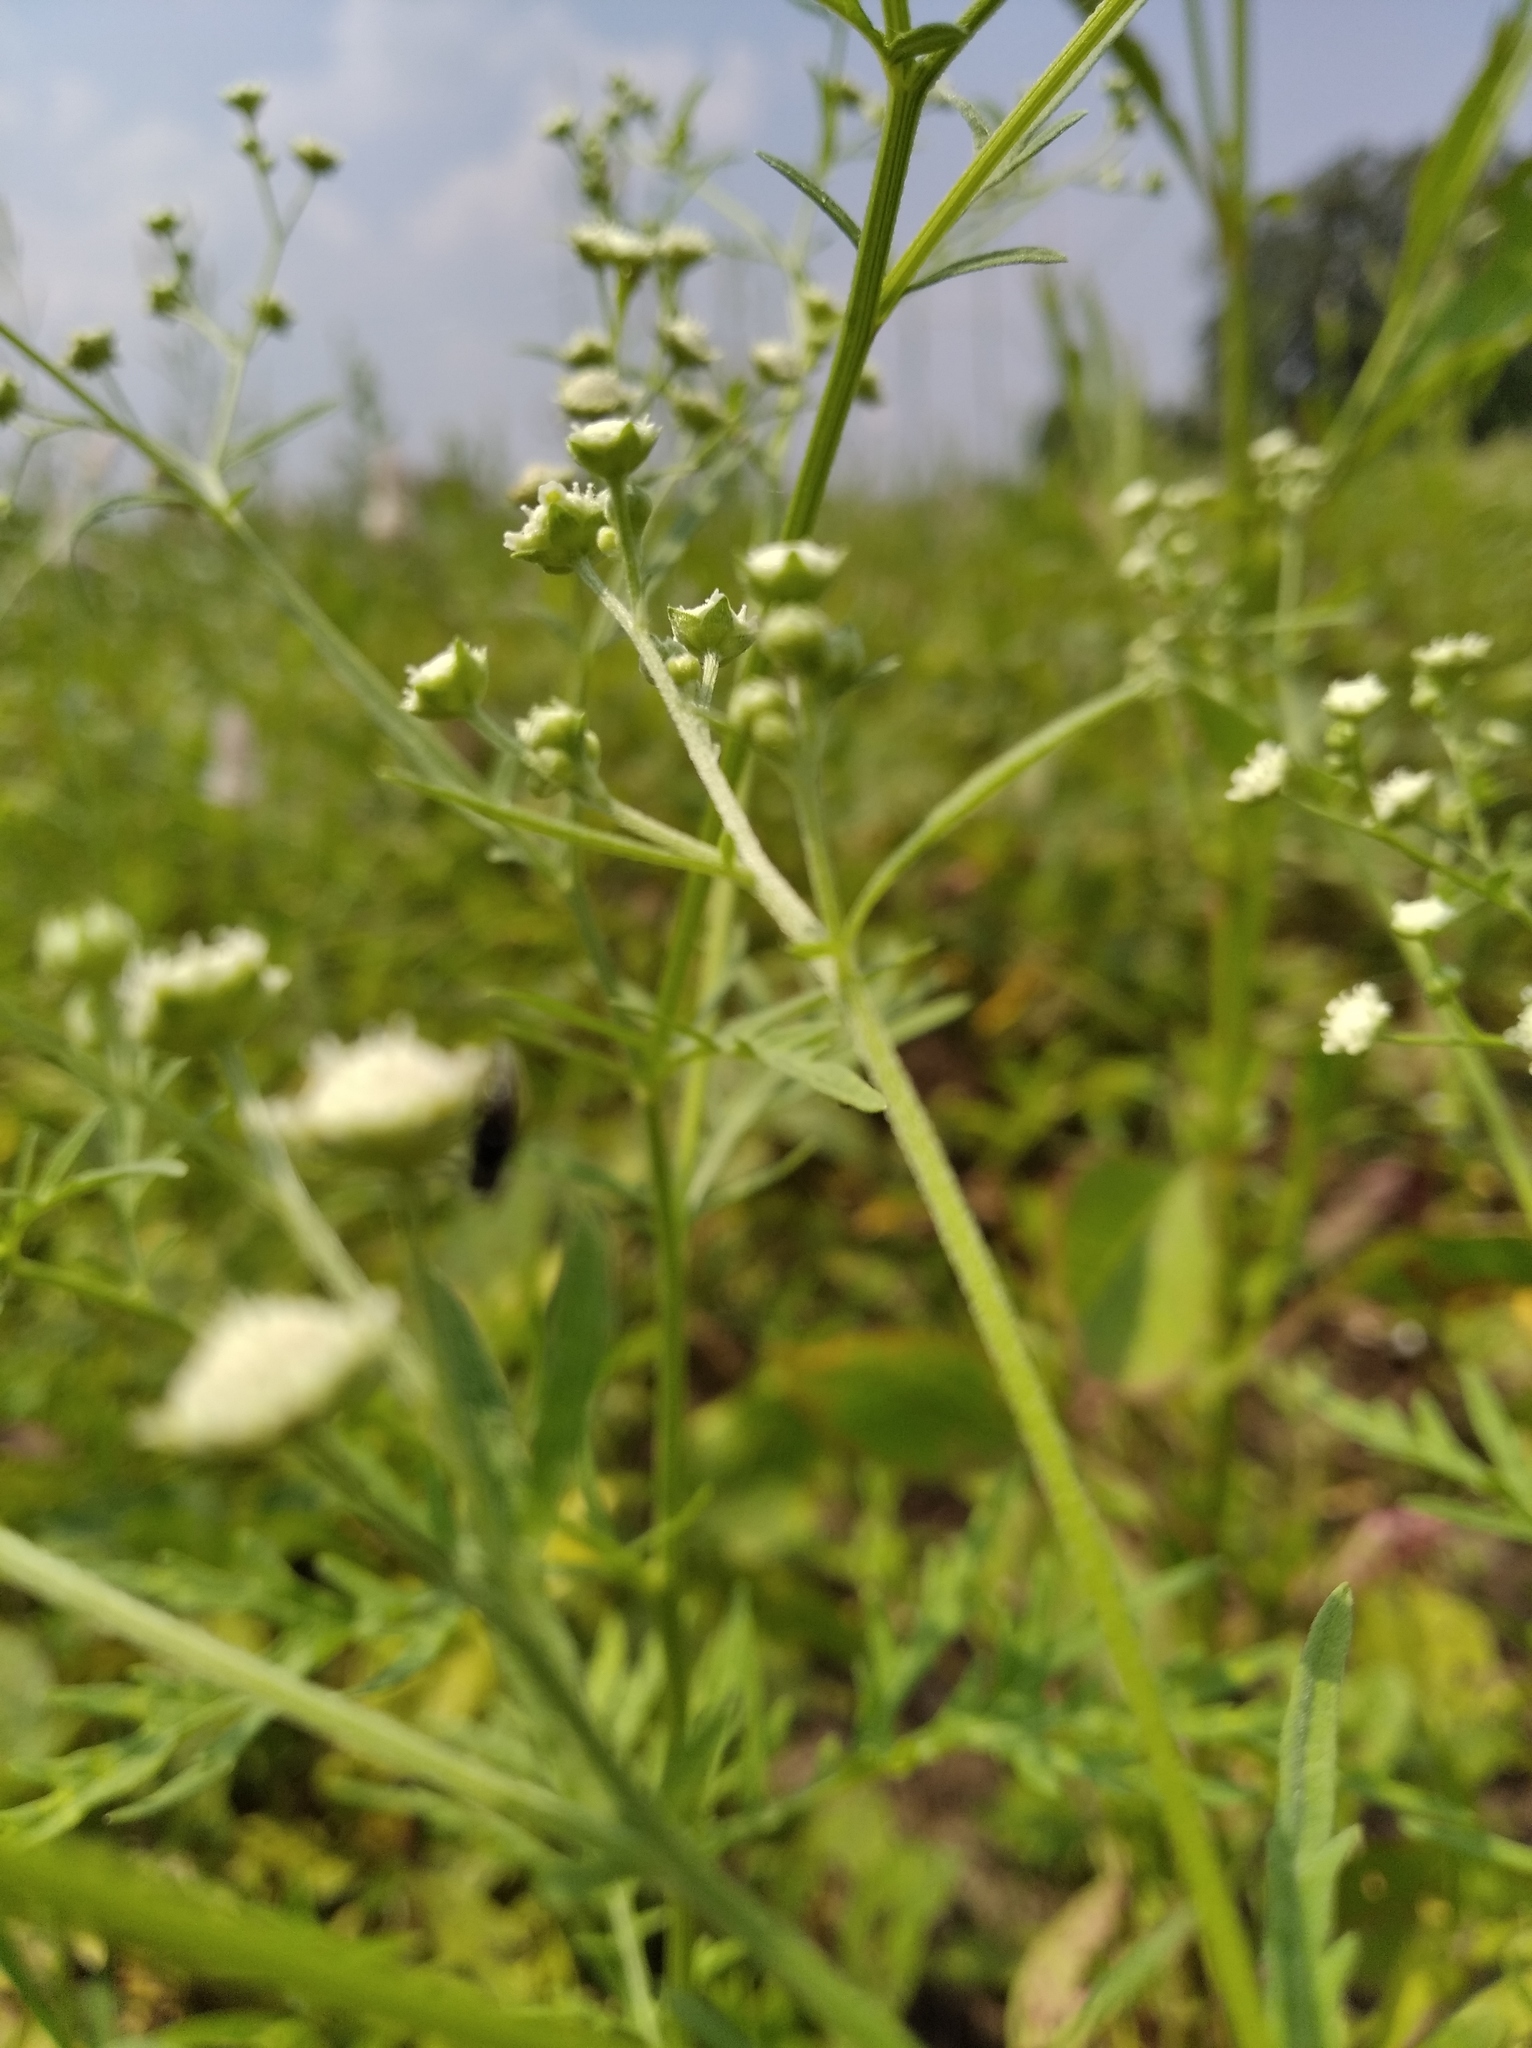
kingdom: Plantae
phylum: Tracheophyta
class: Magnoliopsida
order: Asterales
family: Asteraceae
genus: Parthenium
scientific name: Parthenium hysterophorus
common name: Santa maria feverfew
